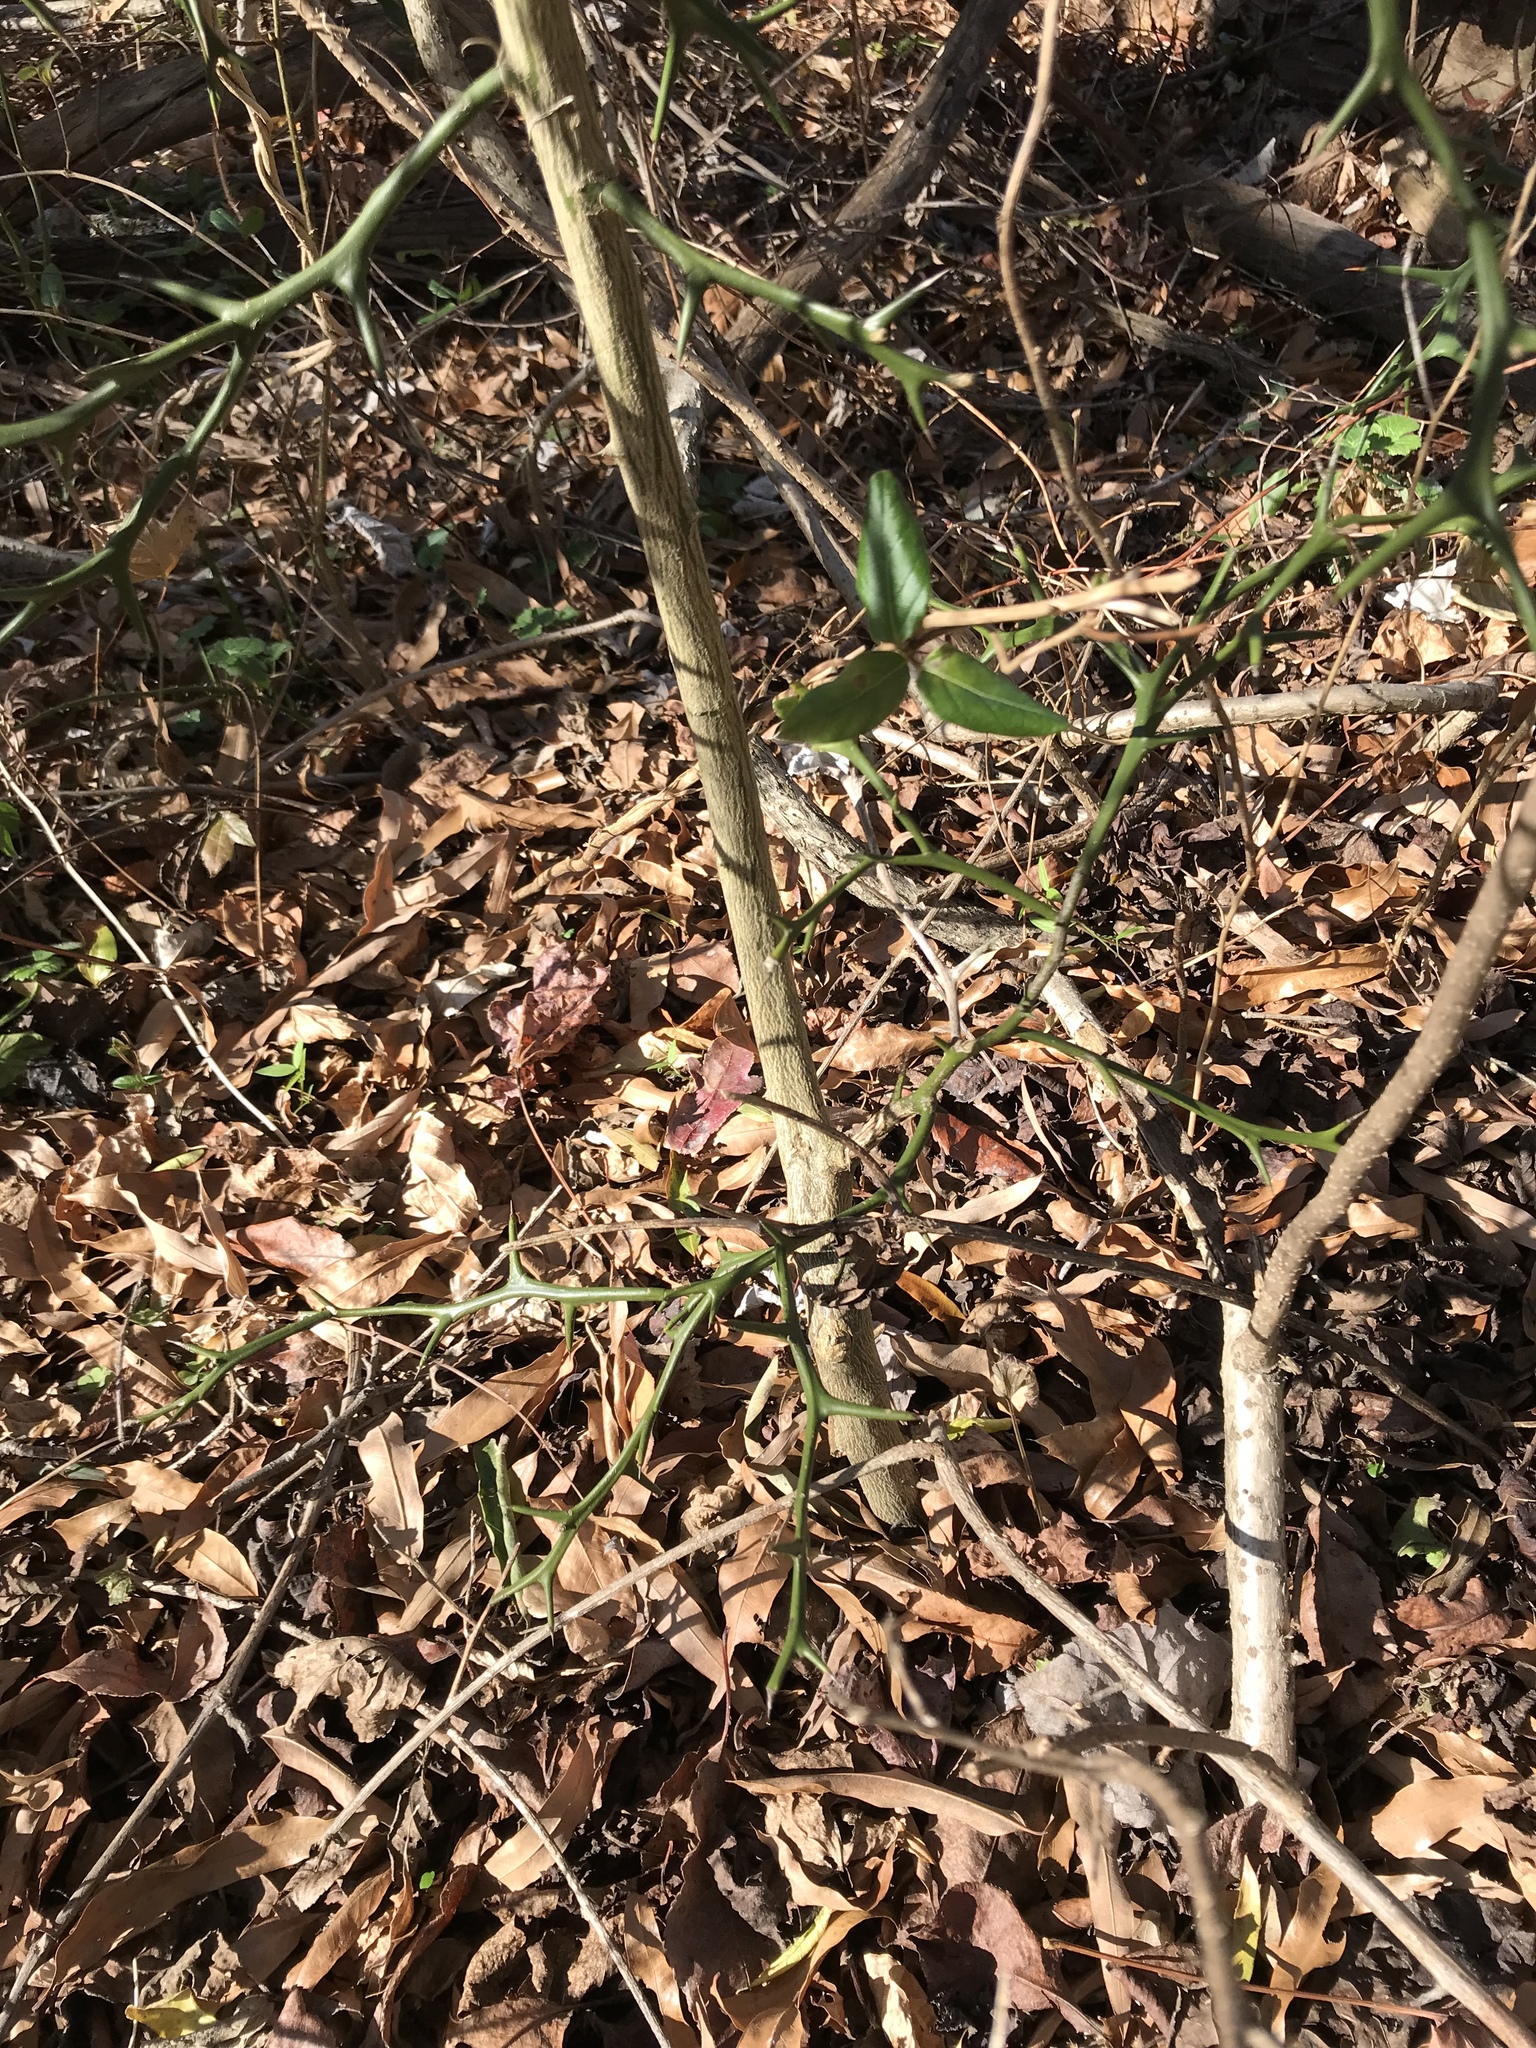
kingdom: Plantae
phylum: Tracheophyta
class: Magnoliopsida
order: Sapindales
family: Rutaceae
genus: Citrus
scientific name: Citrus trifoliata
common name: Japanese bitter-orange
